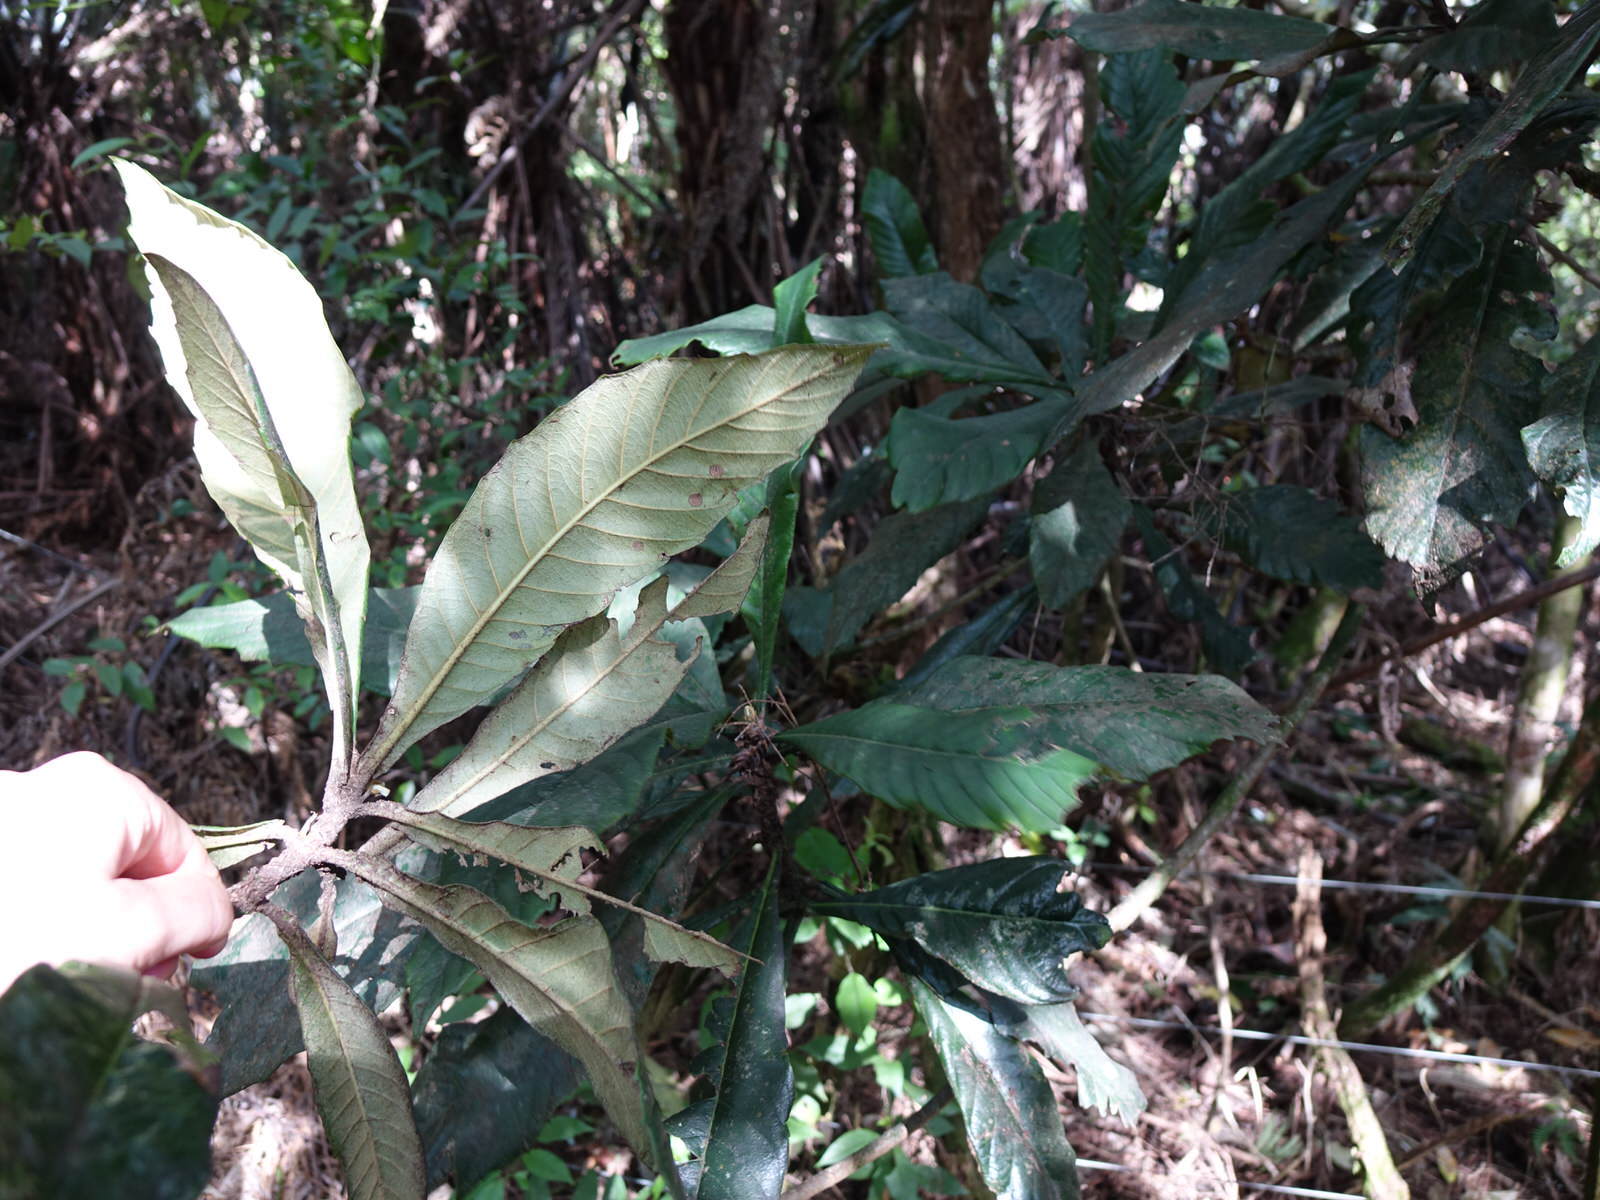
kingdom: Plantae
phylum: Tracheophyta
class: Magnoliopsida
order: Rosales
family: Rosaceae
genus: Rhaphiolepis
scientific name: Rhaphiolepis bibas
